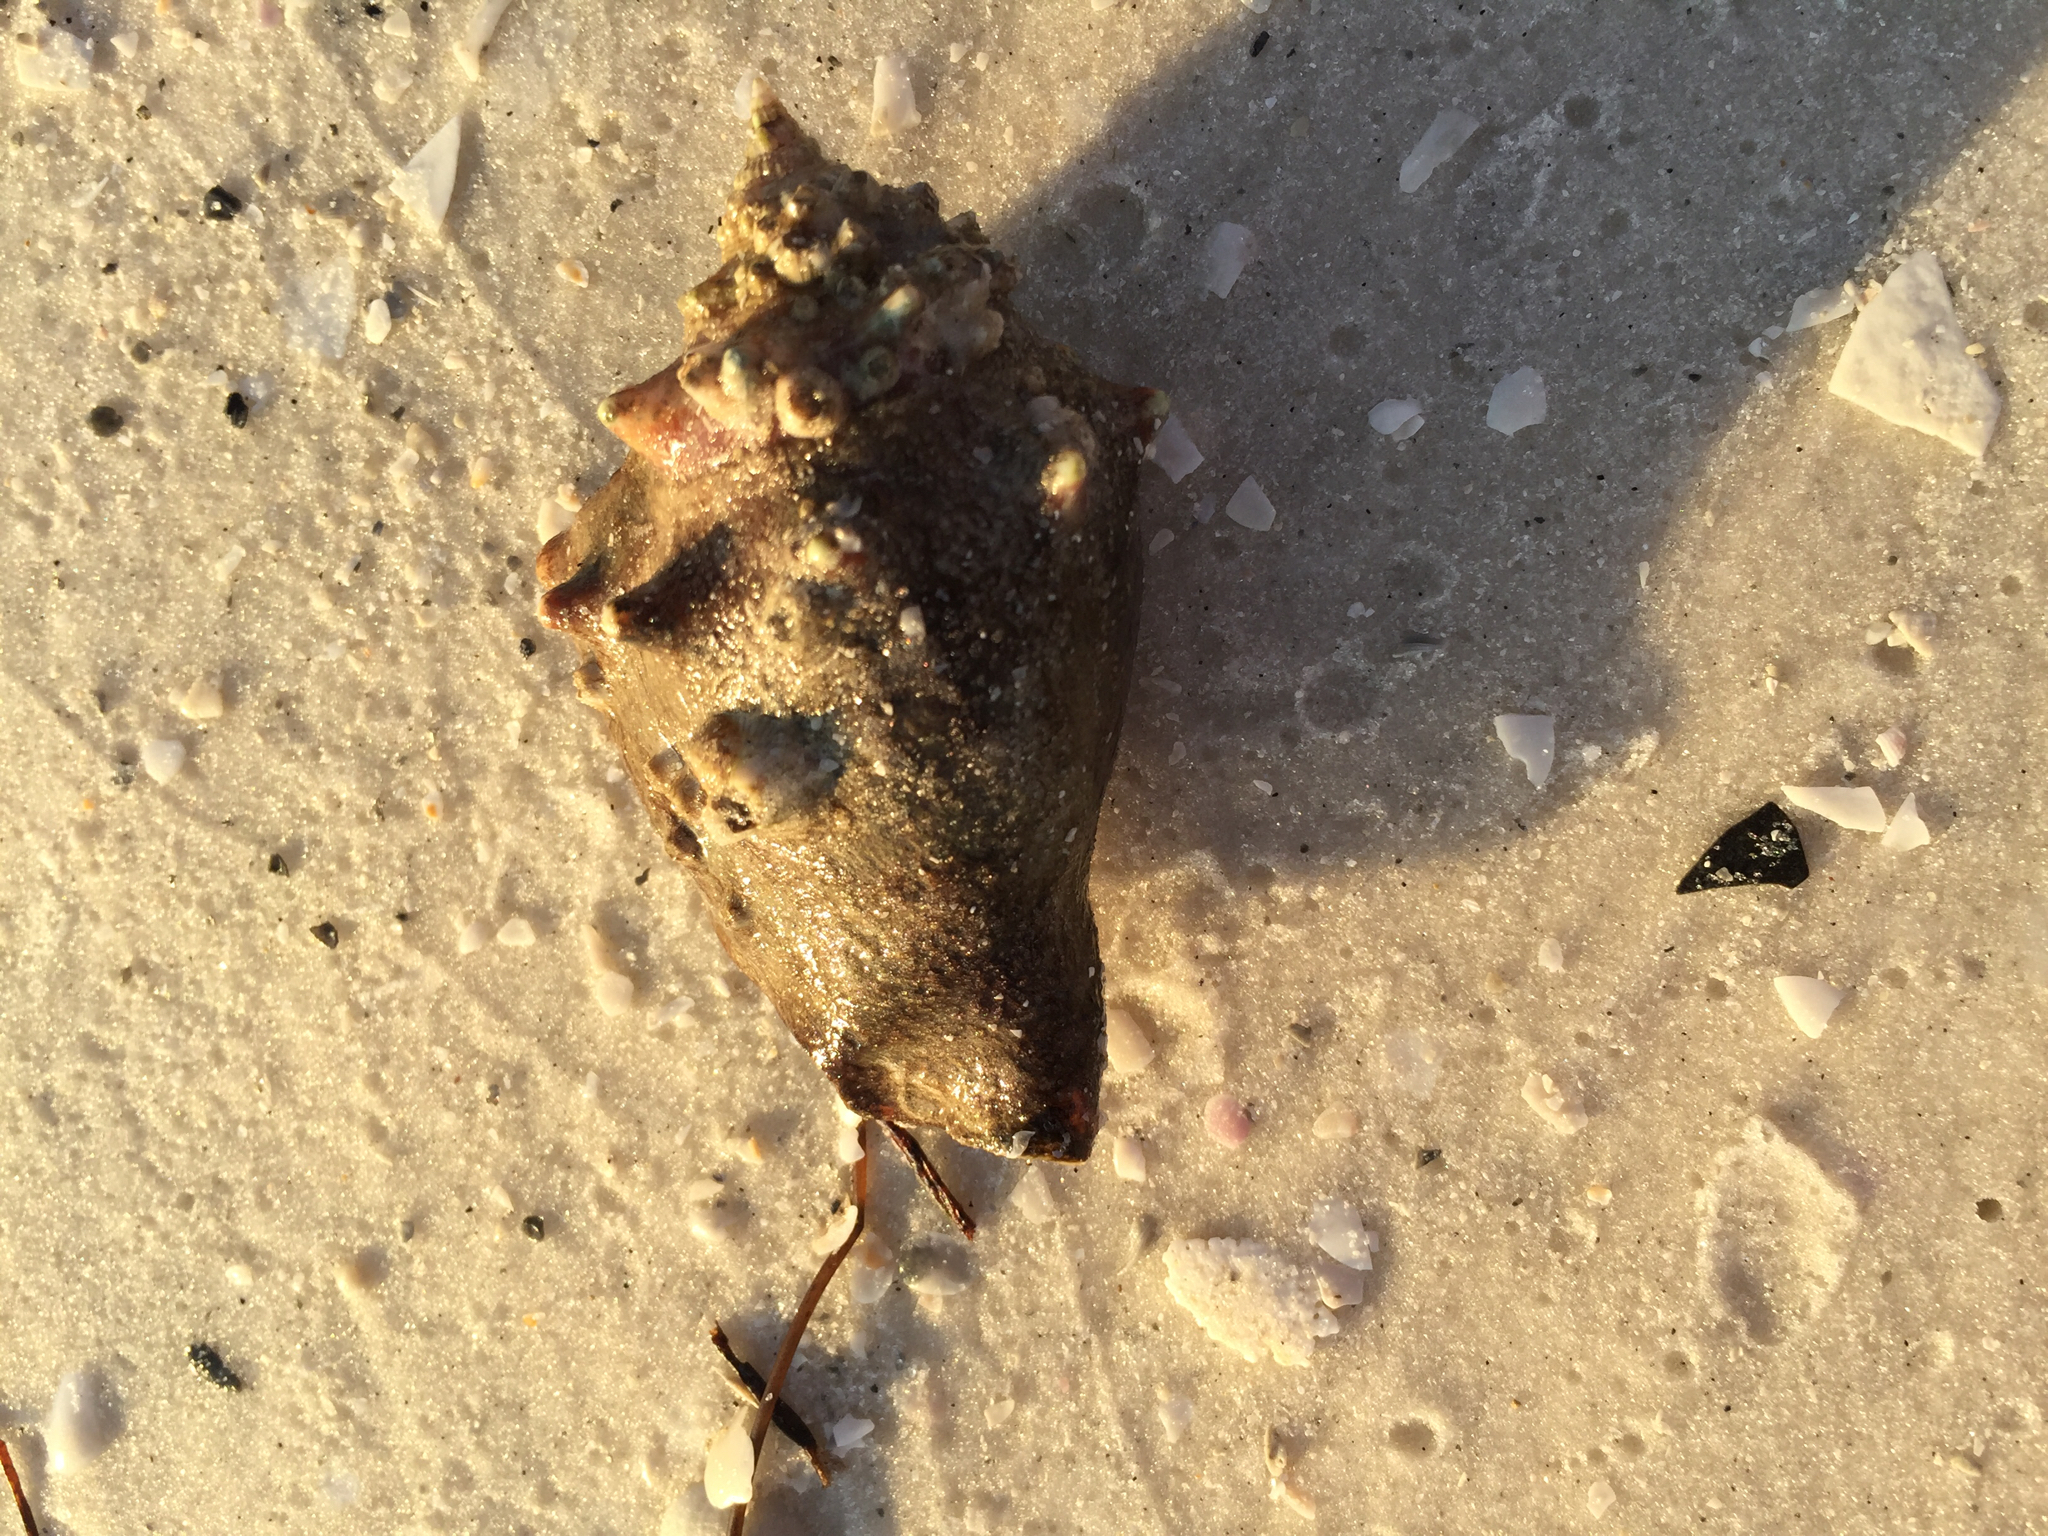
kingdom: Animalia
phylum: Mollusca
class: Gastropoda
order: Littorinimorpha
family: Strombidae
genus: Strombus
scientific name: Strombus alatus
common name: Florida fighting conch
